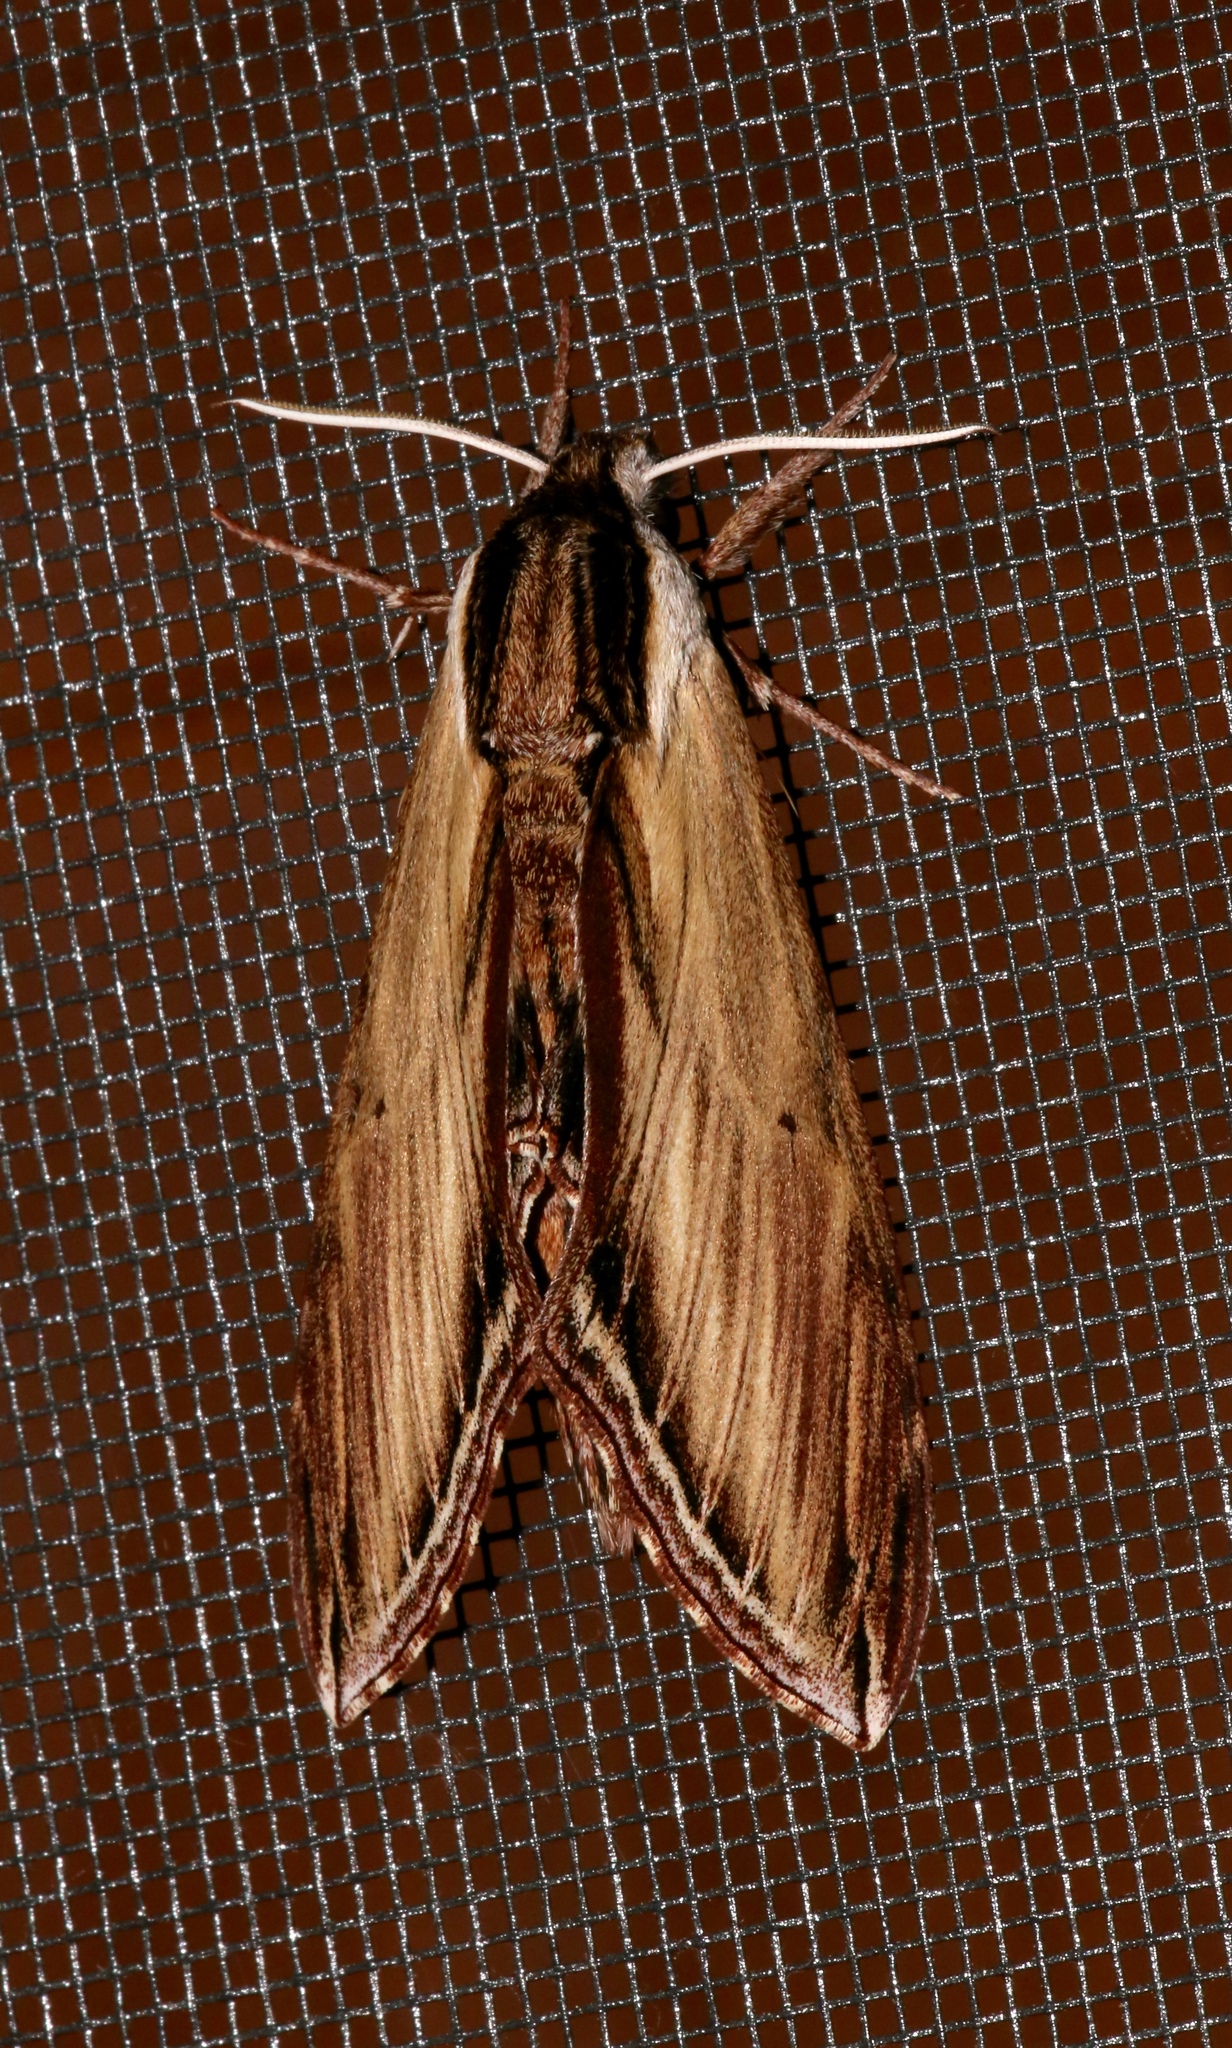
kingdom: Animalia
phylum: Arthropoda
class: Insecta
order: Lepidoptera
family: Sphingidae
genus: Sphinx
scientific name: Sphinx kalmiae
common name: Laurel sphinx
